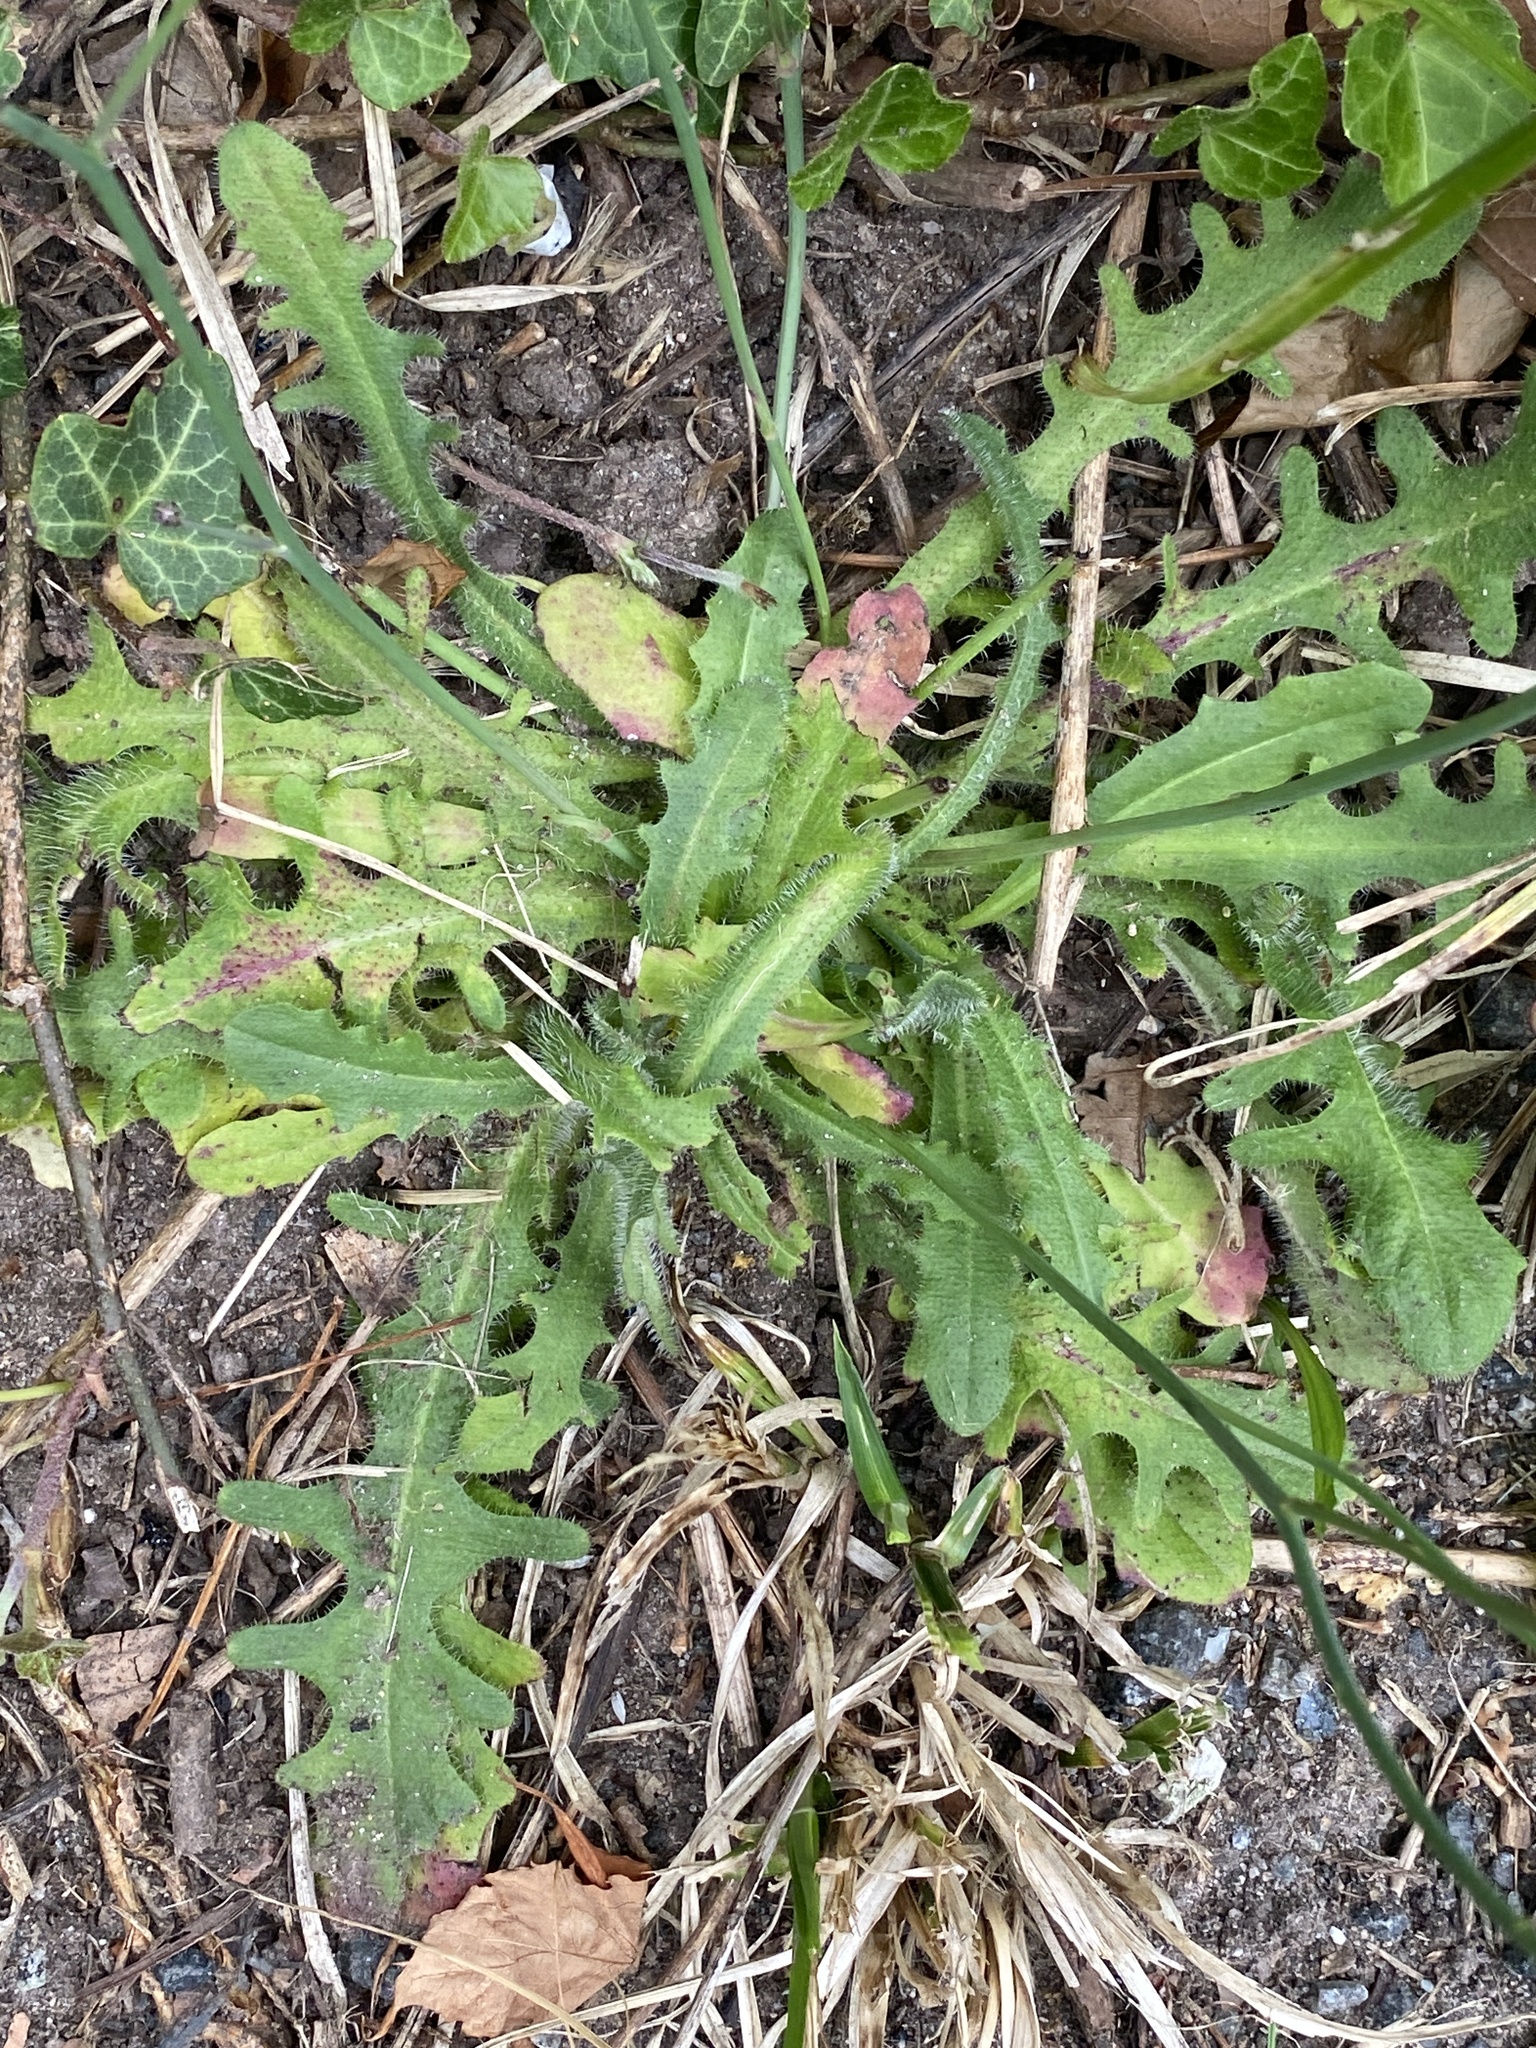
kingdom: Plantae
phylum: Tracheophyta
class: Magnoliopsida
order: Asterales
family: Asteraceae
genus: Hypochaeris
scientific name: Hypochaeris radicata
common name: Flatweed
